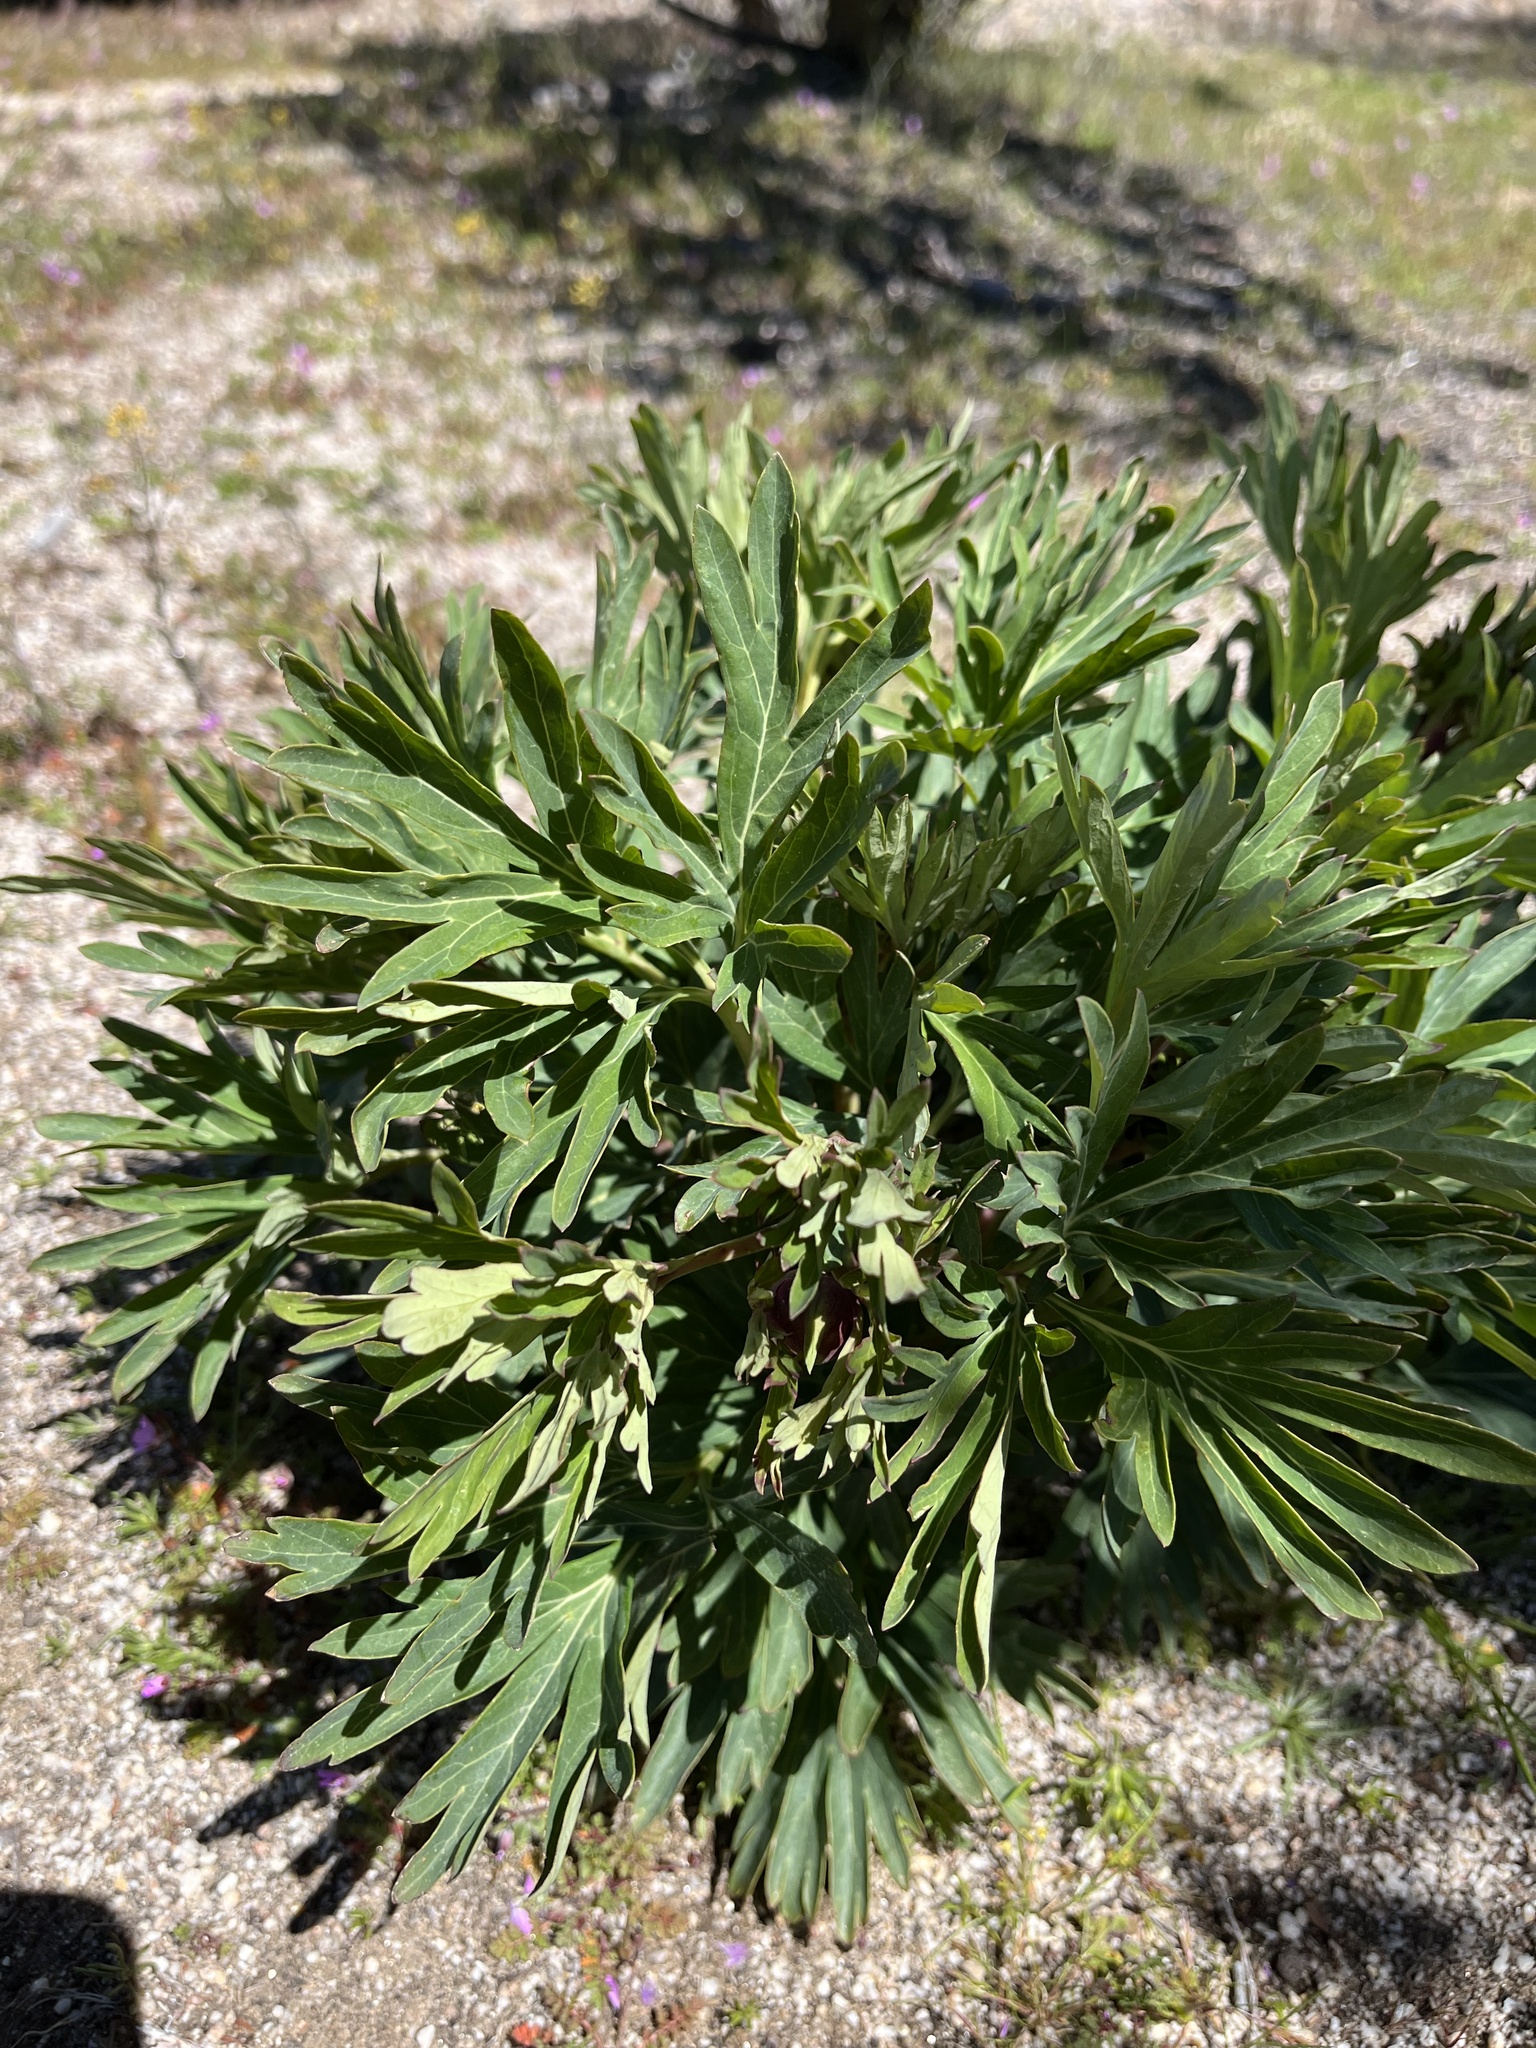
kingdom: Plantae
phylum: Tracheophyta
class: Magnoliopsida
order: Saxifragales
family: Paeoniaceae
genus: Paeonia
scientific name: Paeonia californica
